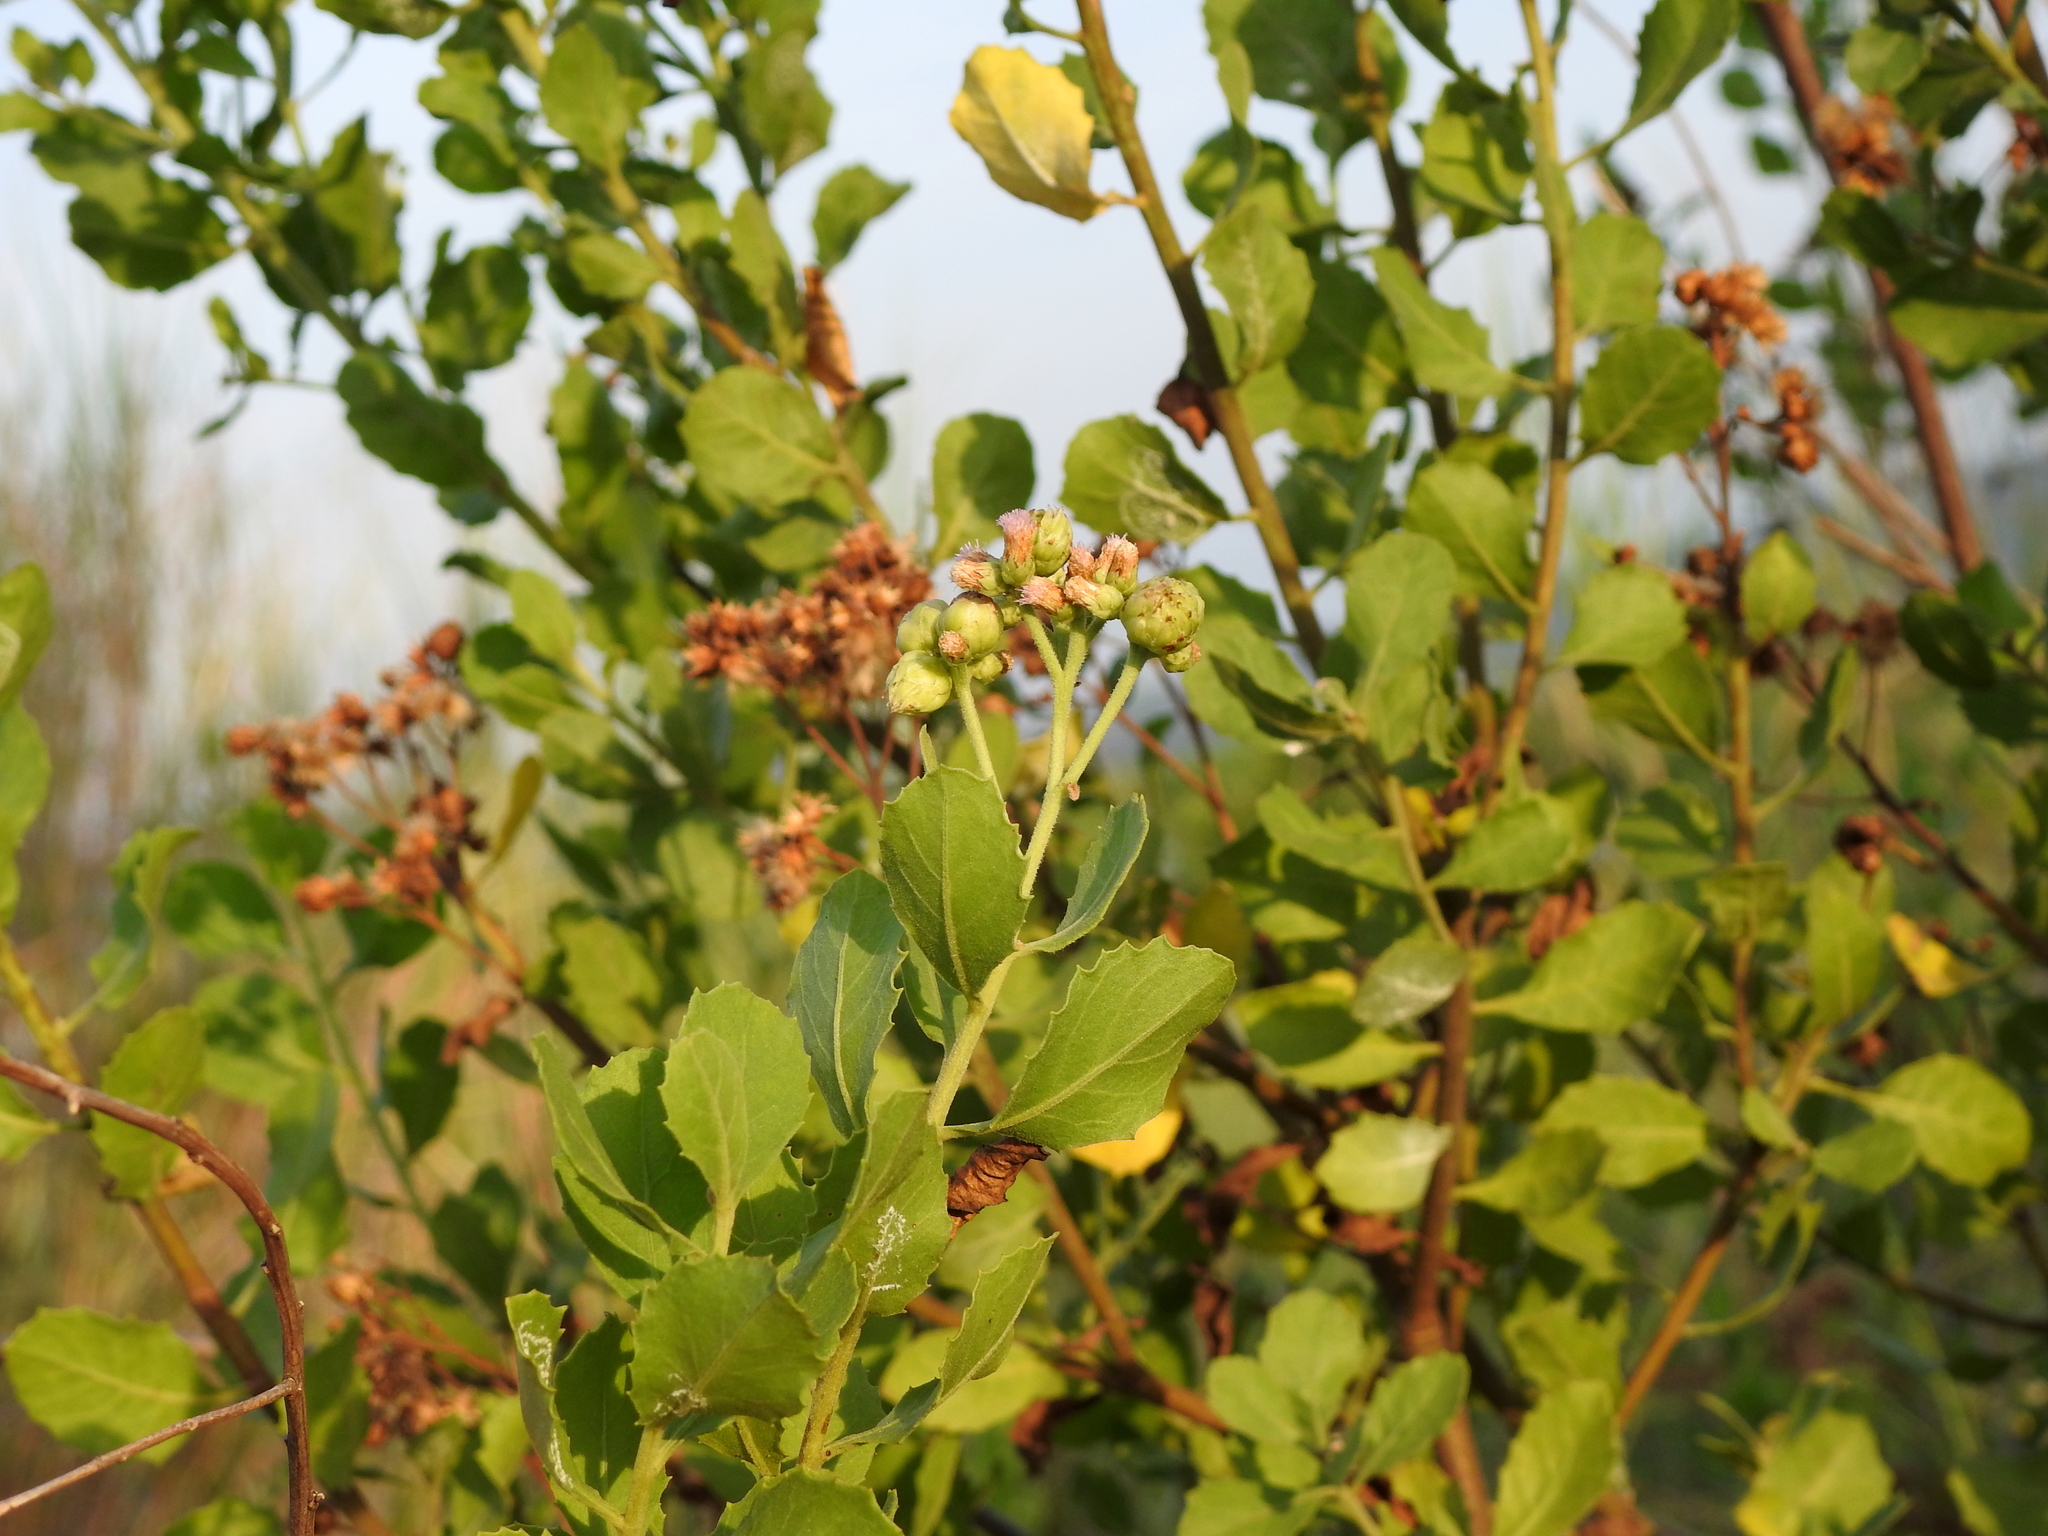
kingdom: Plantae
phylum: Tracheophyta
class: Magnoliopsida
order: Asterales
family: Asteraceae
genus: Pluchea
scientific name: Pluchea indica
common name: Indian fleabane
